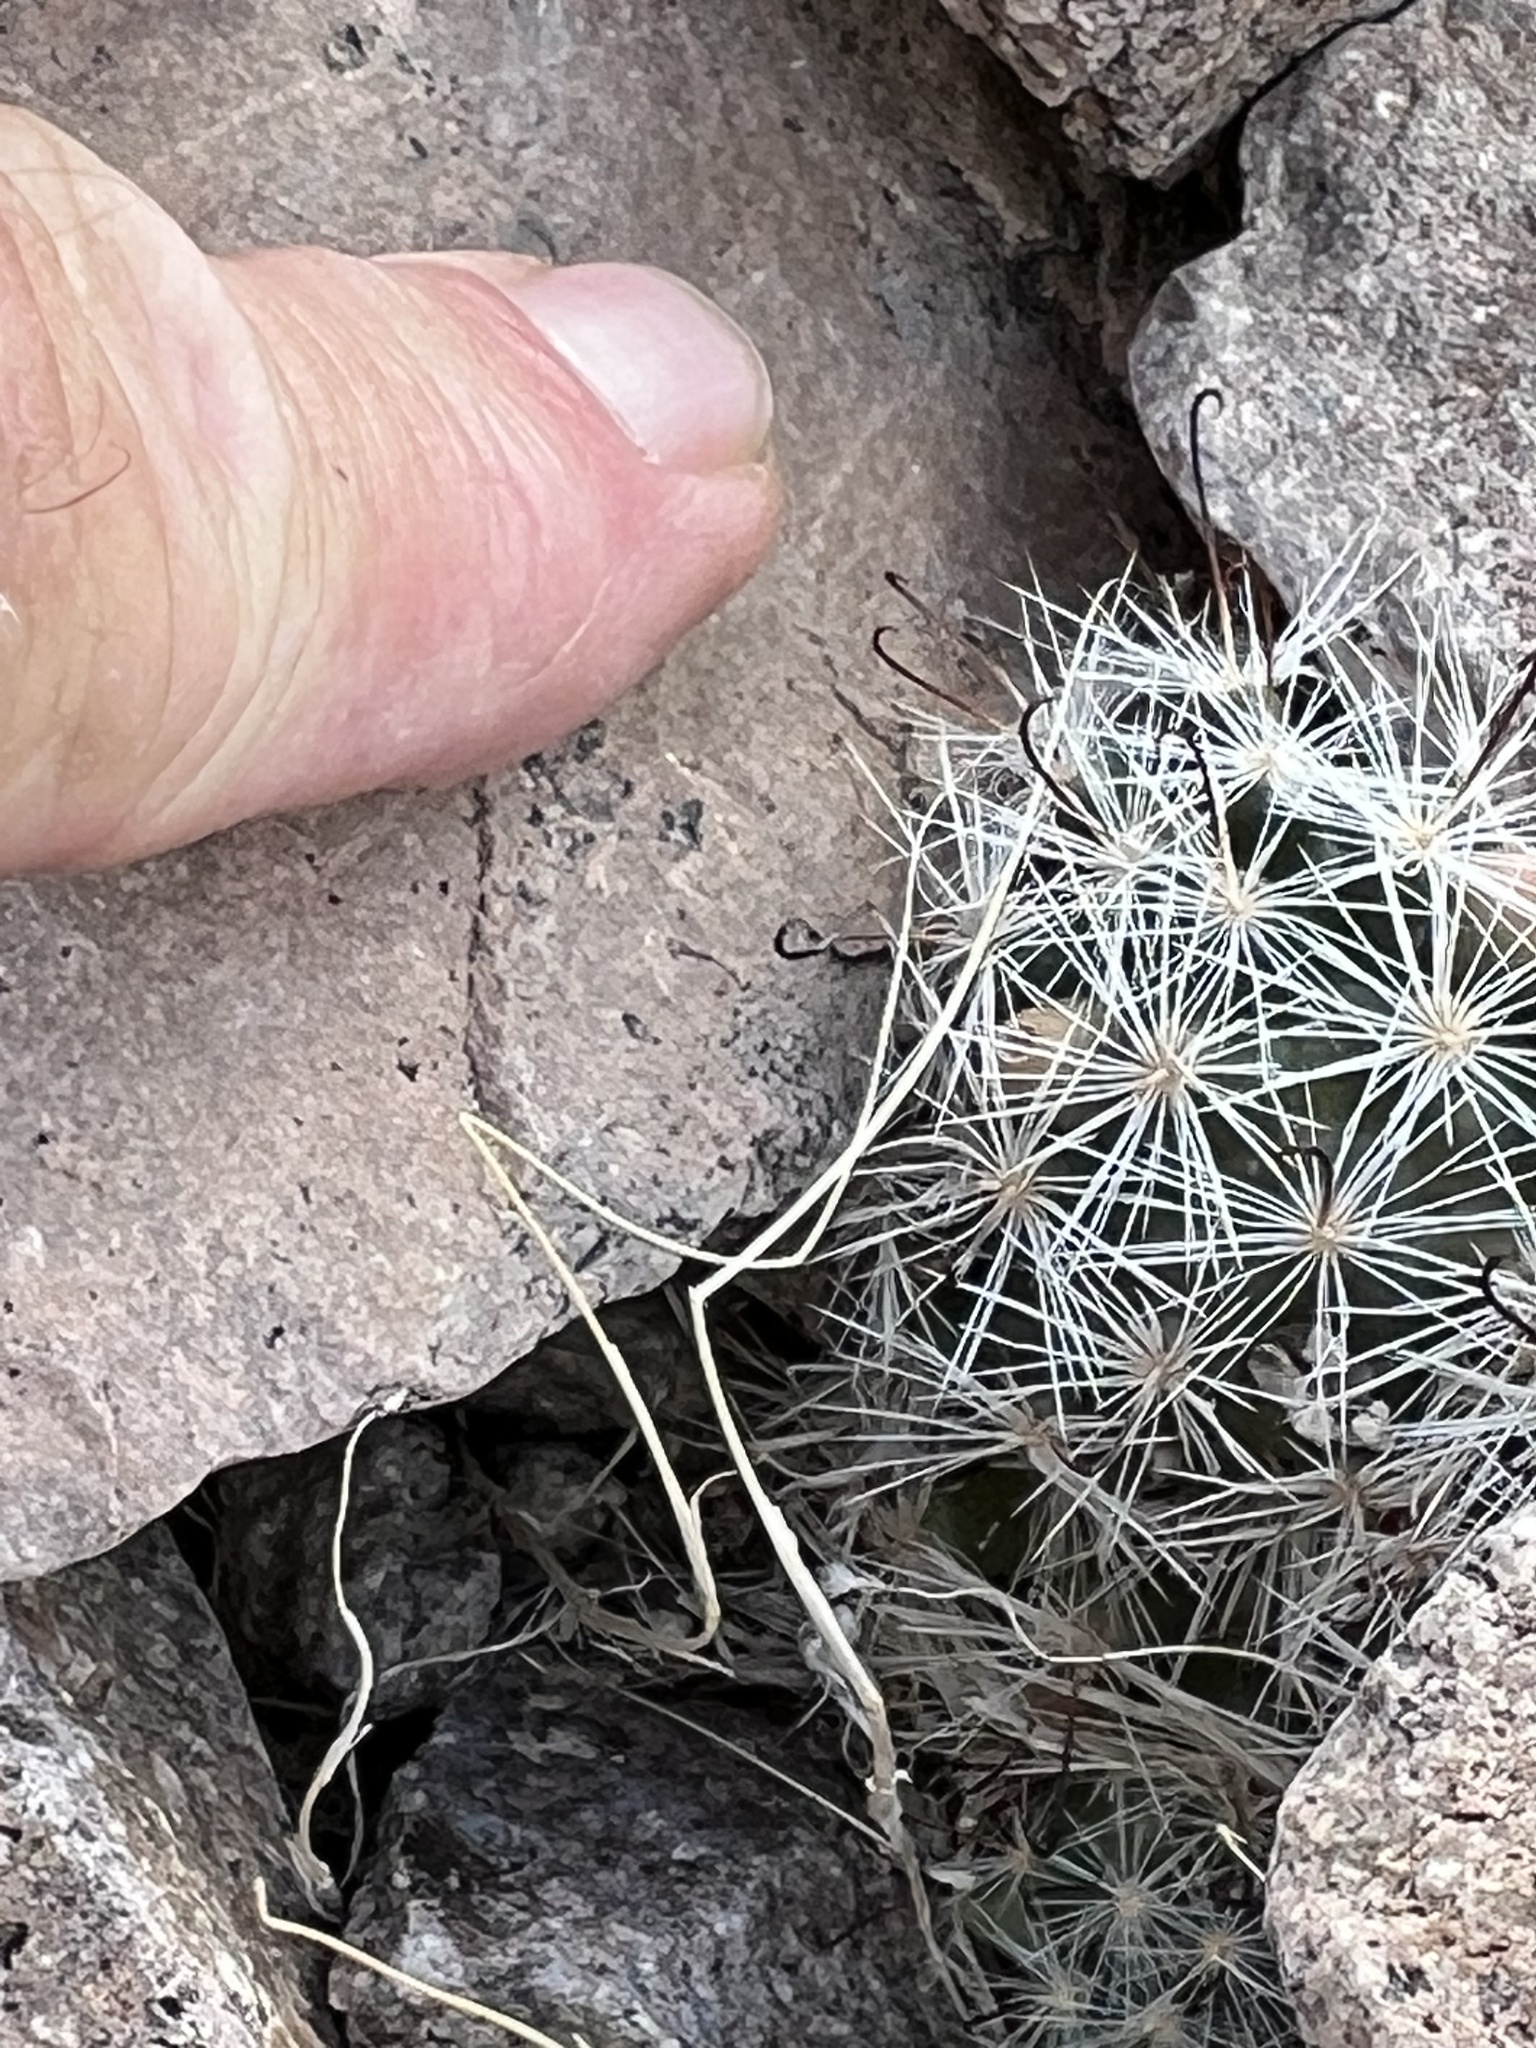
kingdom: Plantae
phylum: Tracheophyta
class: Magnoliopsida
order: Caryophyllales
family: Cactaceae
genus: Cochemiea
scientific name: Cochemiea tetrancistra
